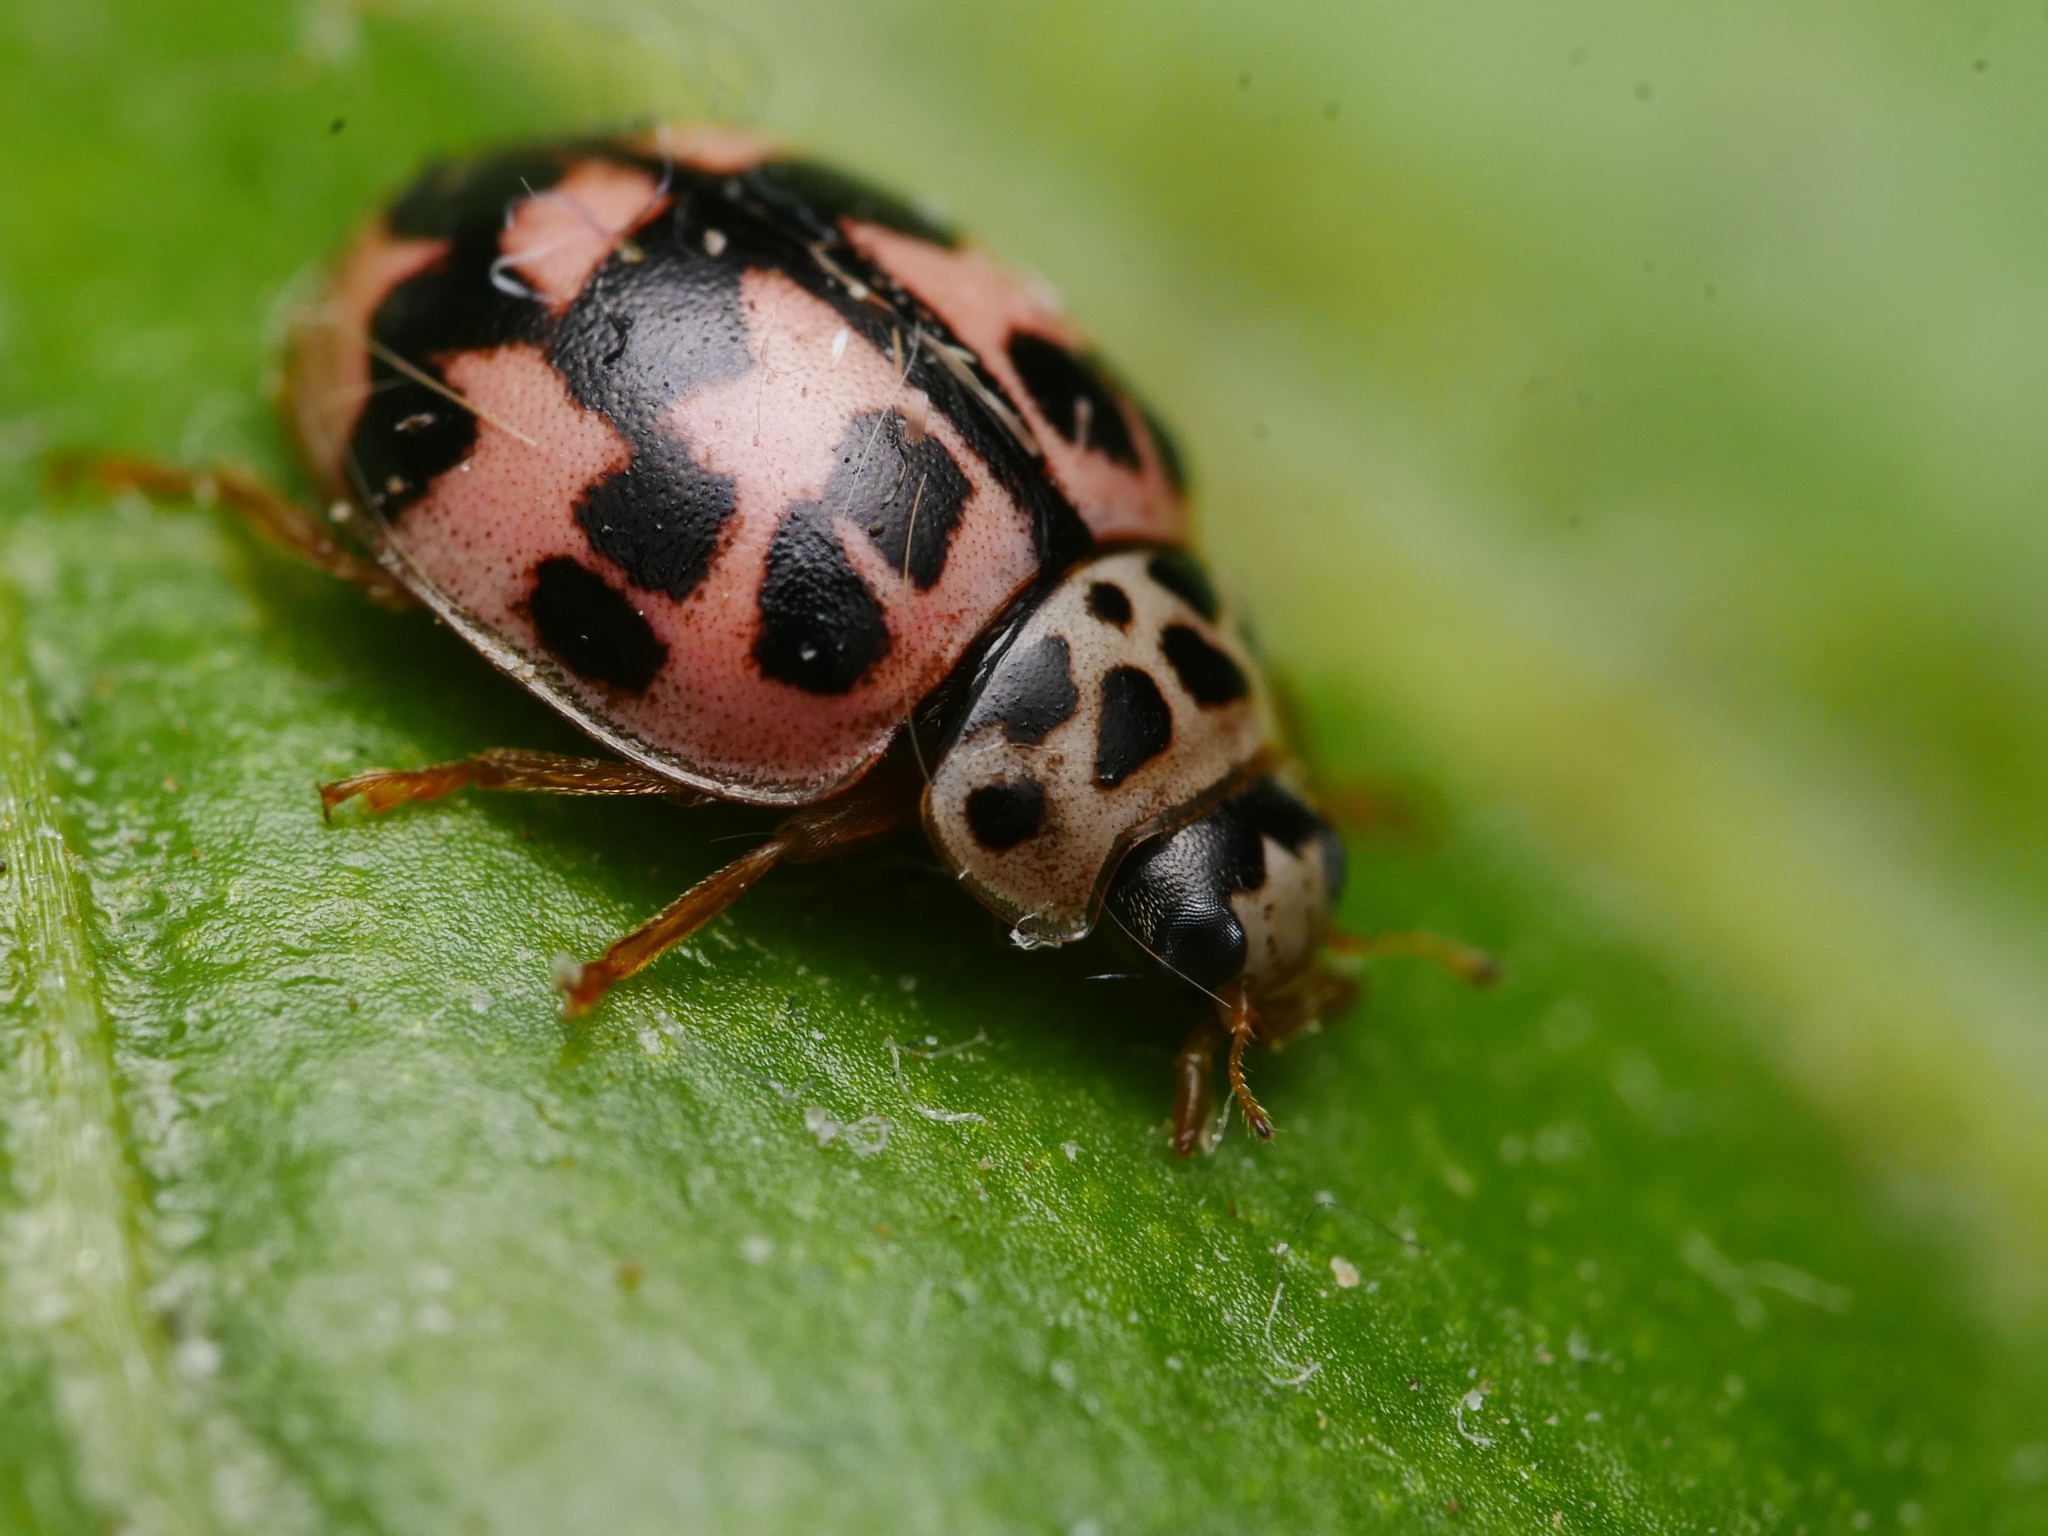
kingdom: Animalia
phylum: Arthropoda
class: Insecta
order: Coleoptera
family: Coccinellidae
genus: Oenopia
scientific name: Oenopia conglobata
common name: Ladybird beetle
